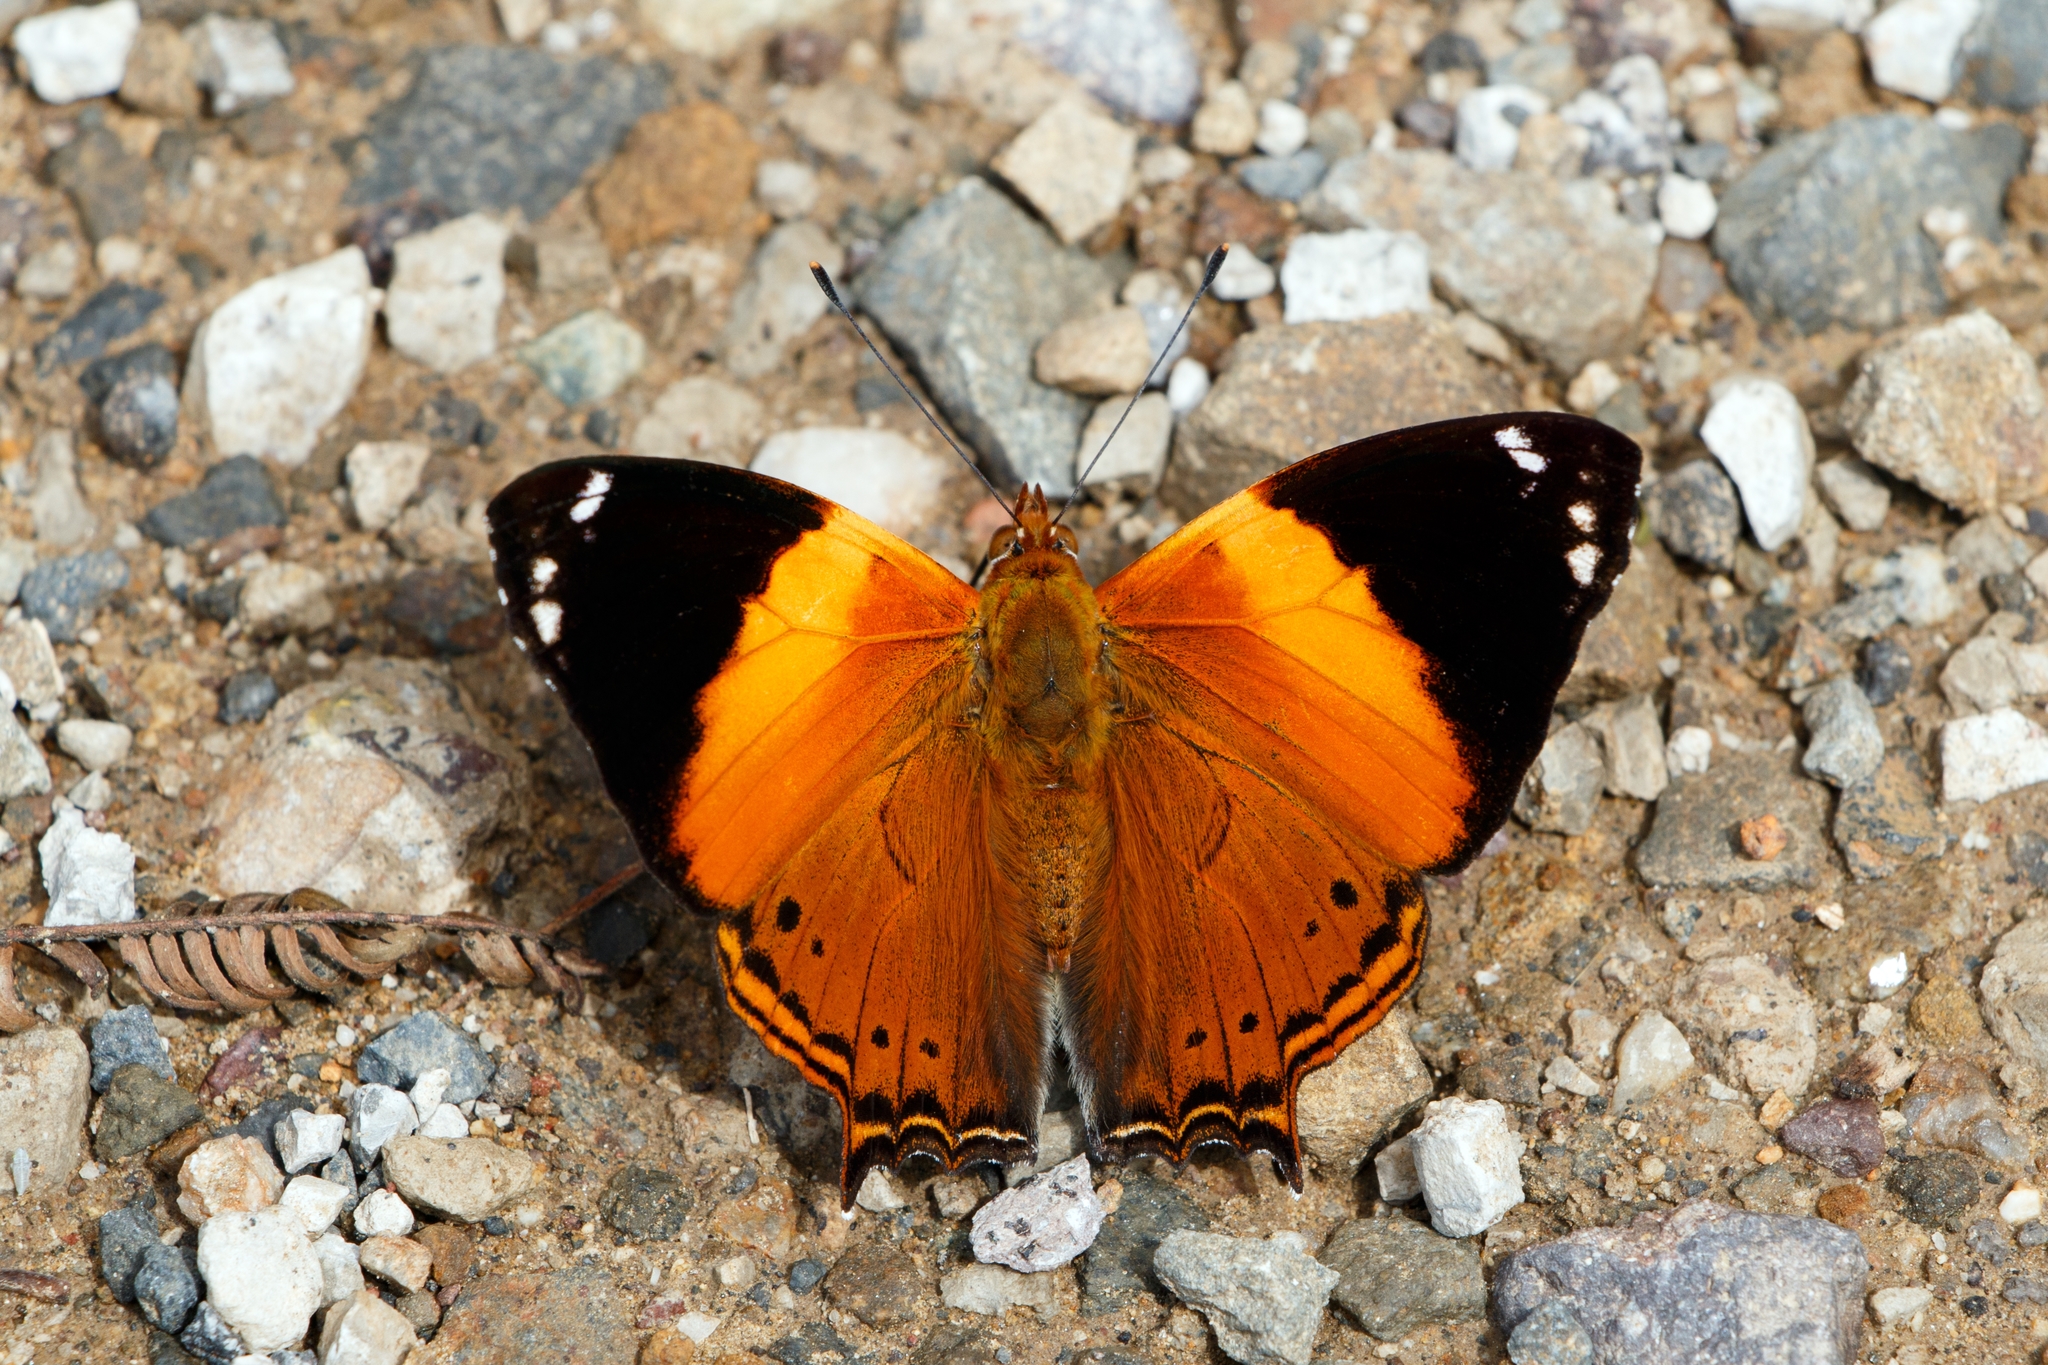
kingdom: Animalia
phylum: Arthropoda
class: Insecta
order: Lepidoptera
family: Nymphalidae
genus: Hypanartia
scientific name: Hypanartia godmanii
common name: Godman's mapwing
